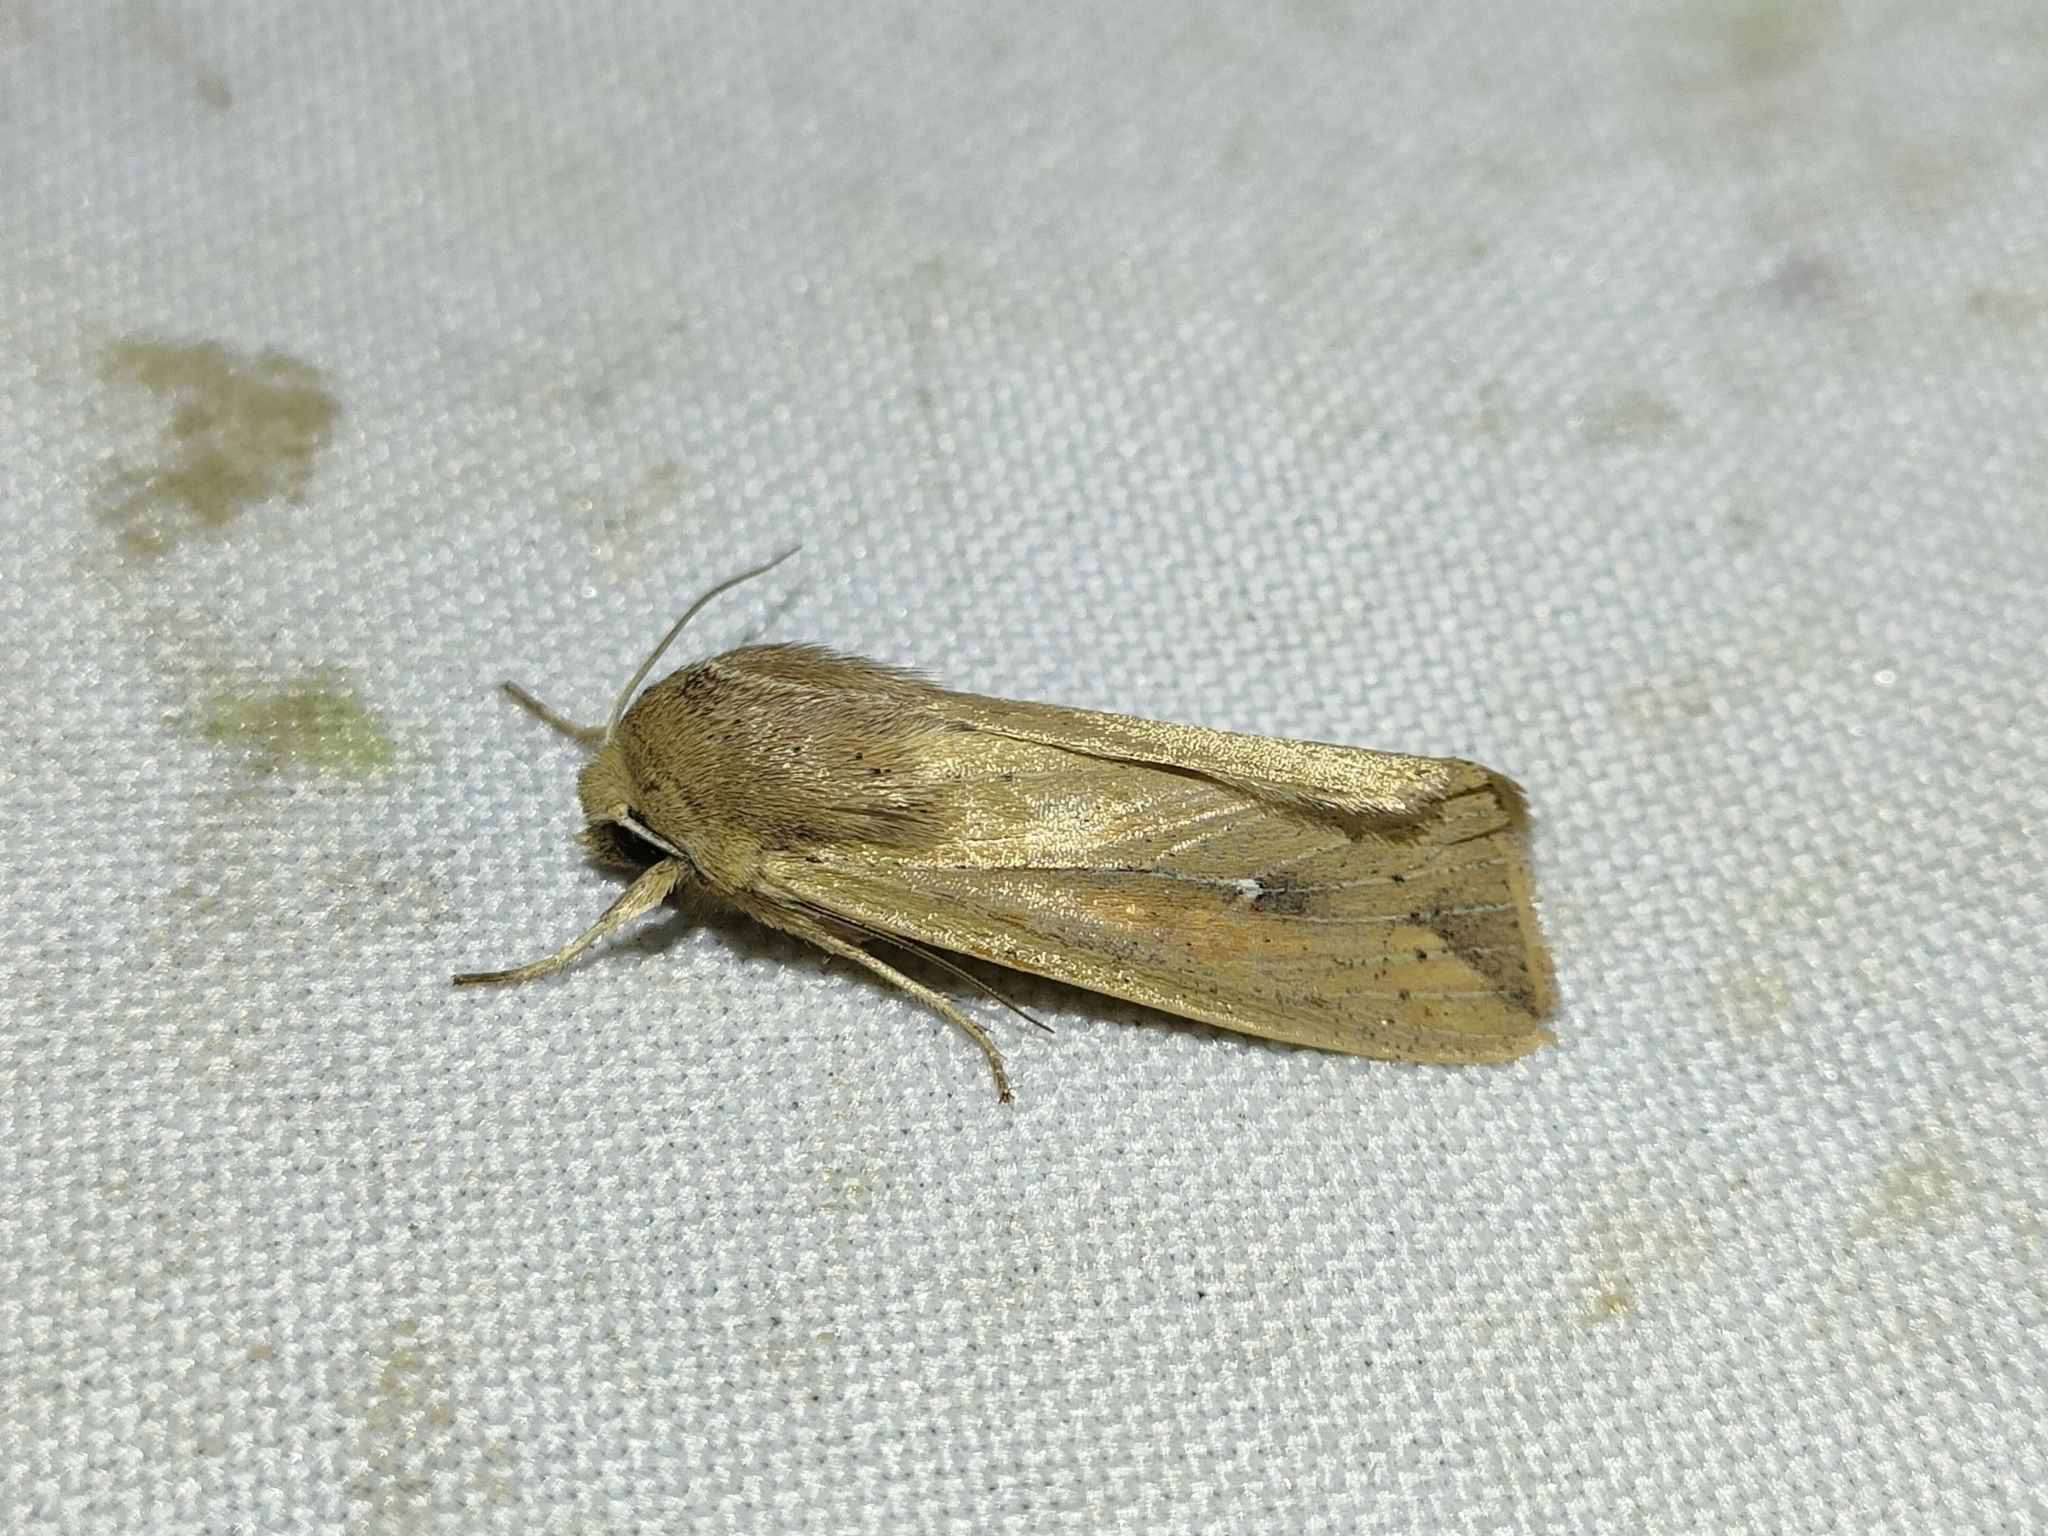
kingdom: Animalia
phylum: Arthropoda
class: Insecta
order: Lepidoptera
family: Noctuidae
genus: Mythimna
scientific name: Mythimna unipuncta
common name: White-speck
